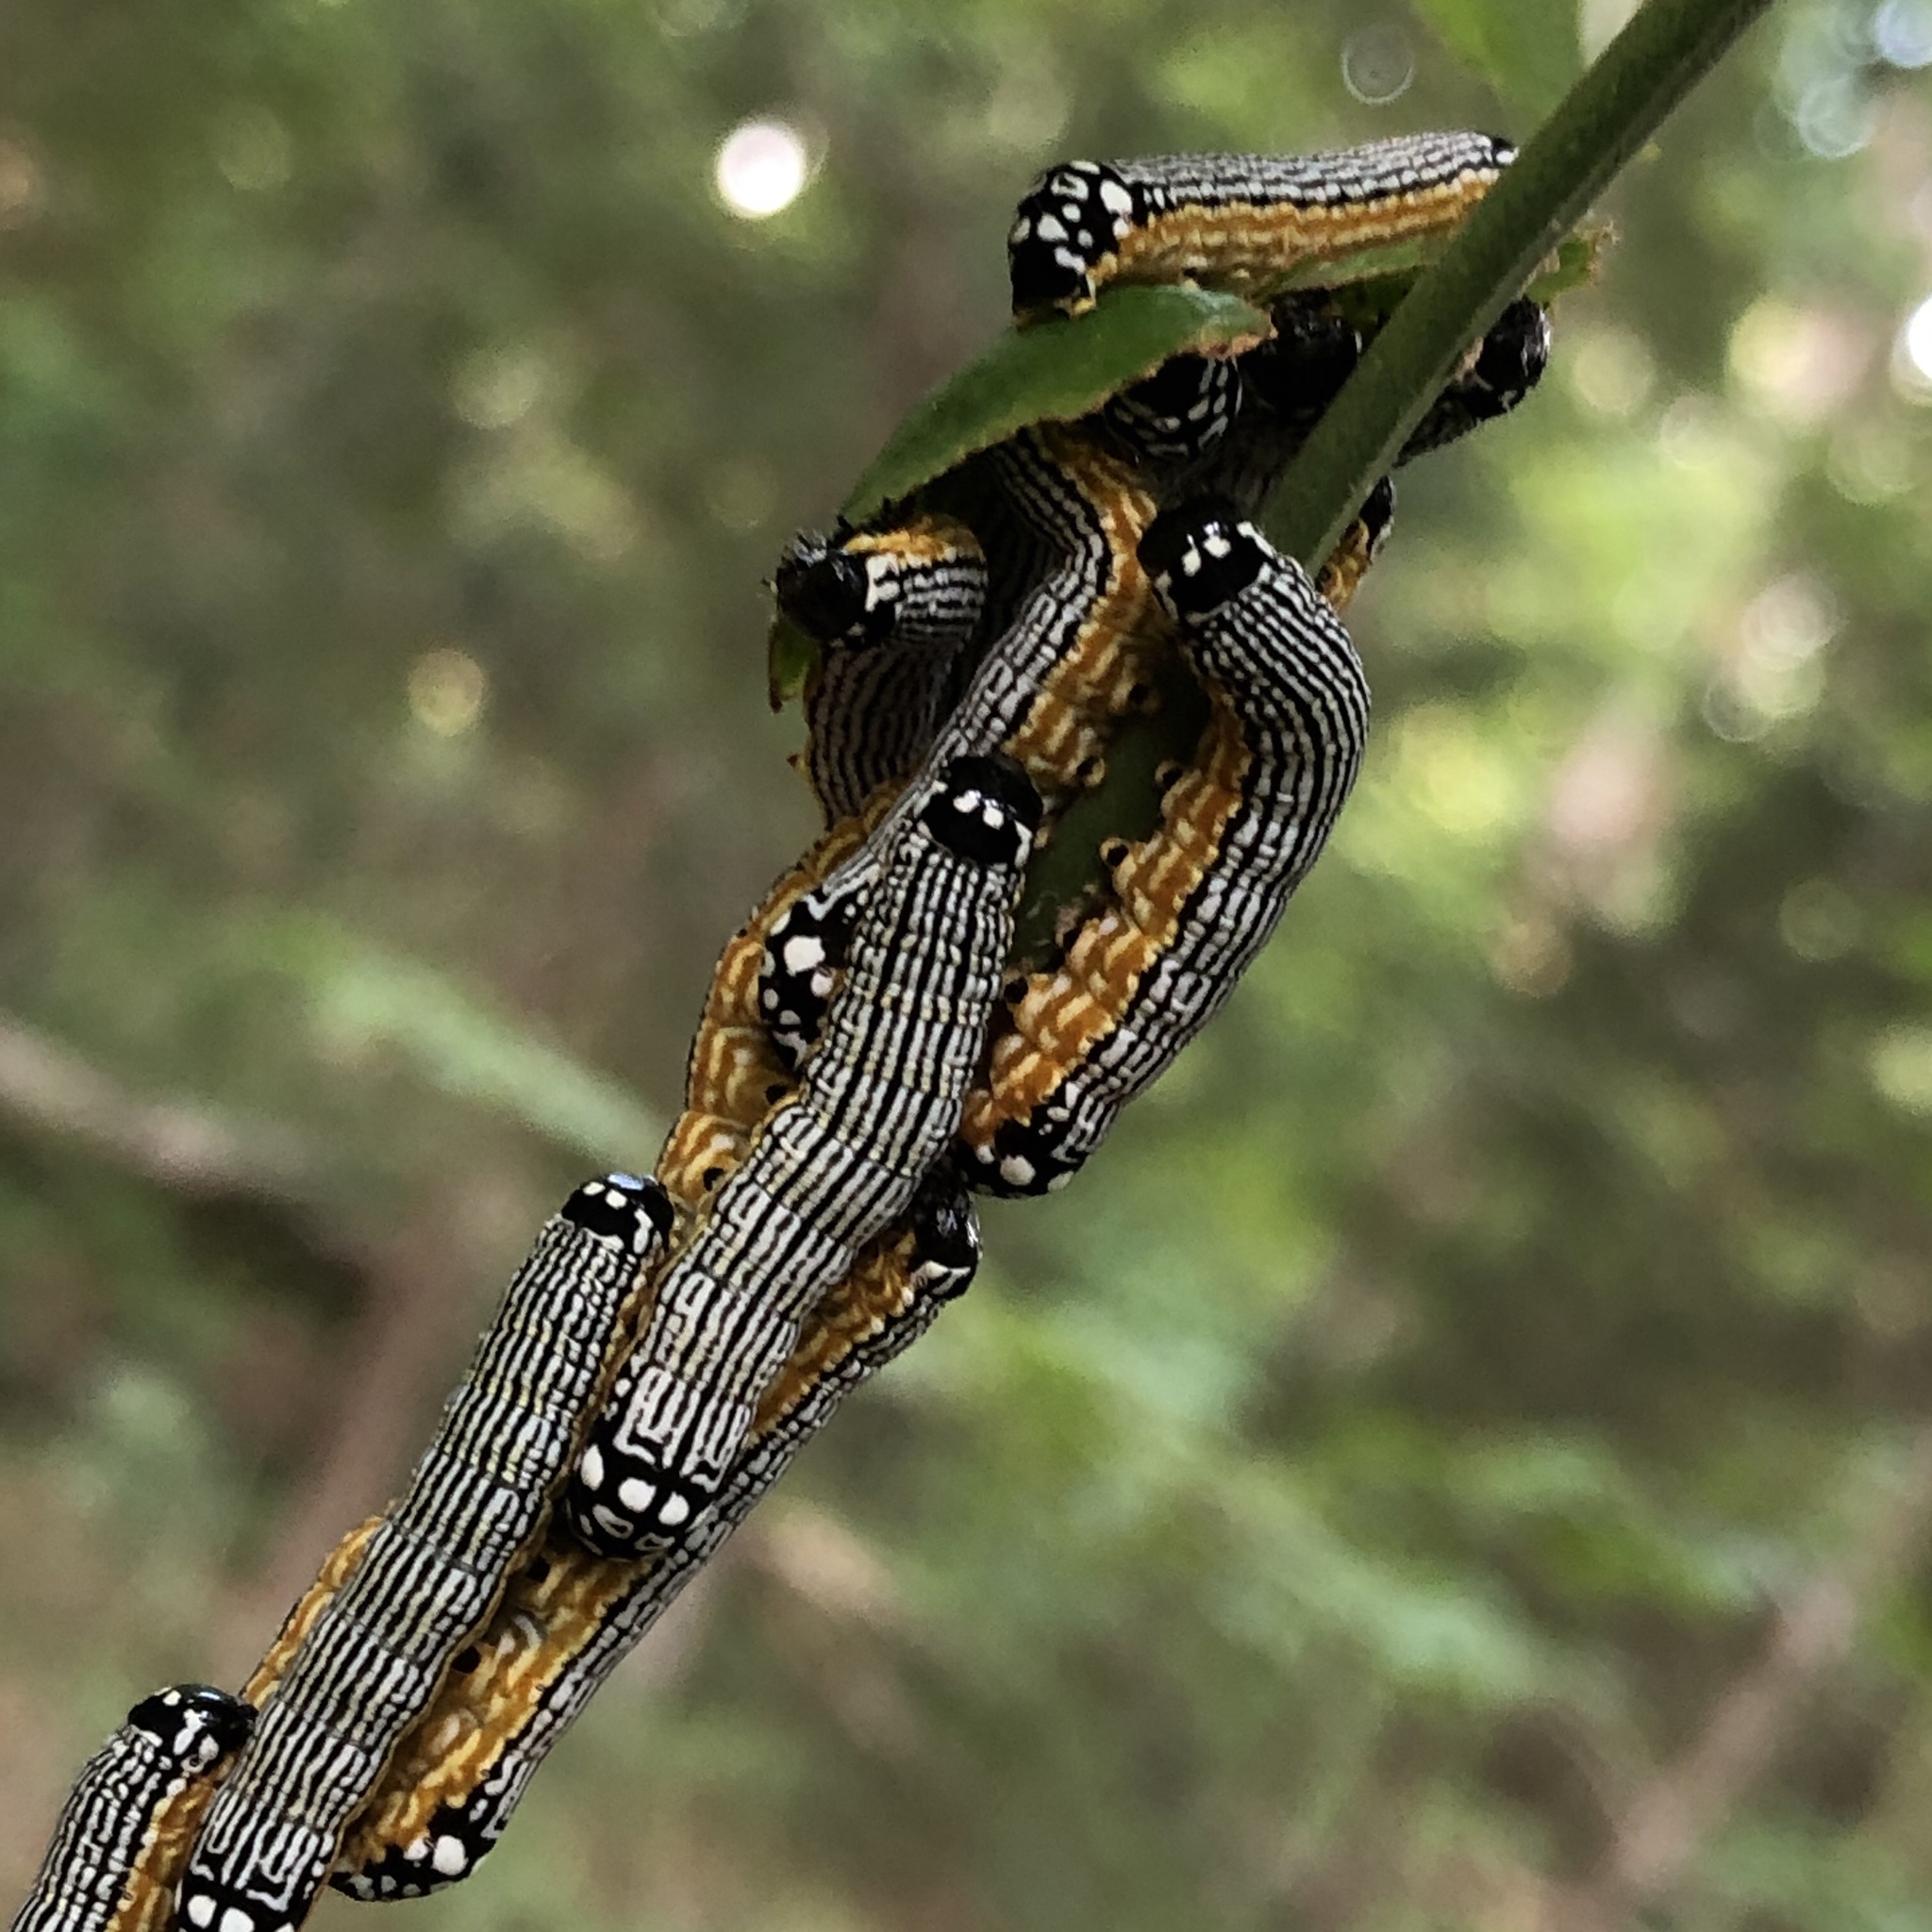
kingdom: Animalia
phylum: Arthropoda
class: Insecta
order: Lepidoptera
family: Noctuidae
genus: Phosphila
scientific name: Phosphila turbulenta
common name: Turbulent phosphila moth
